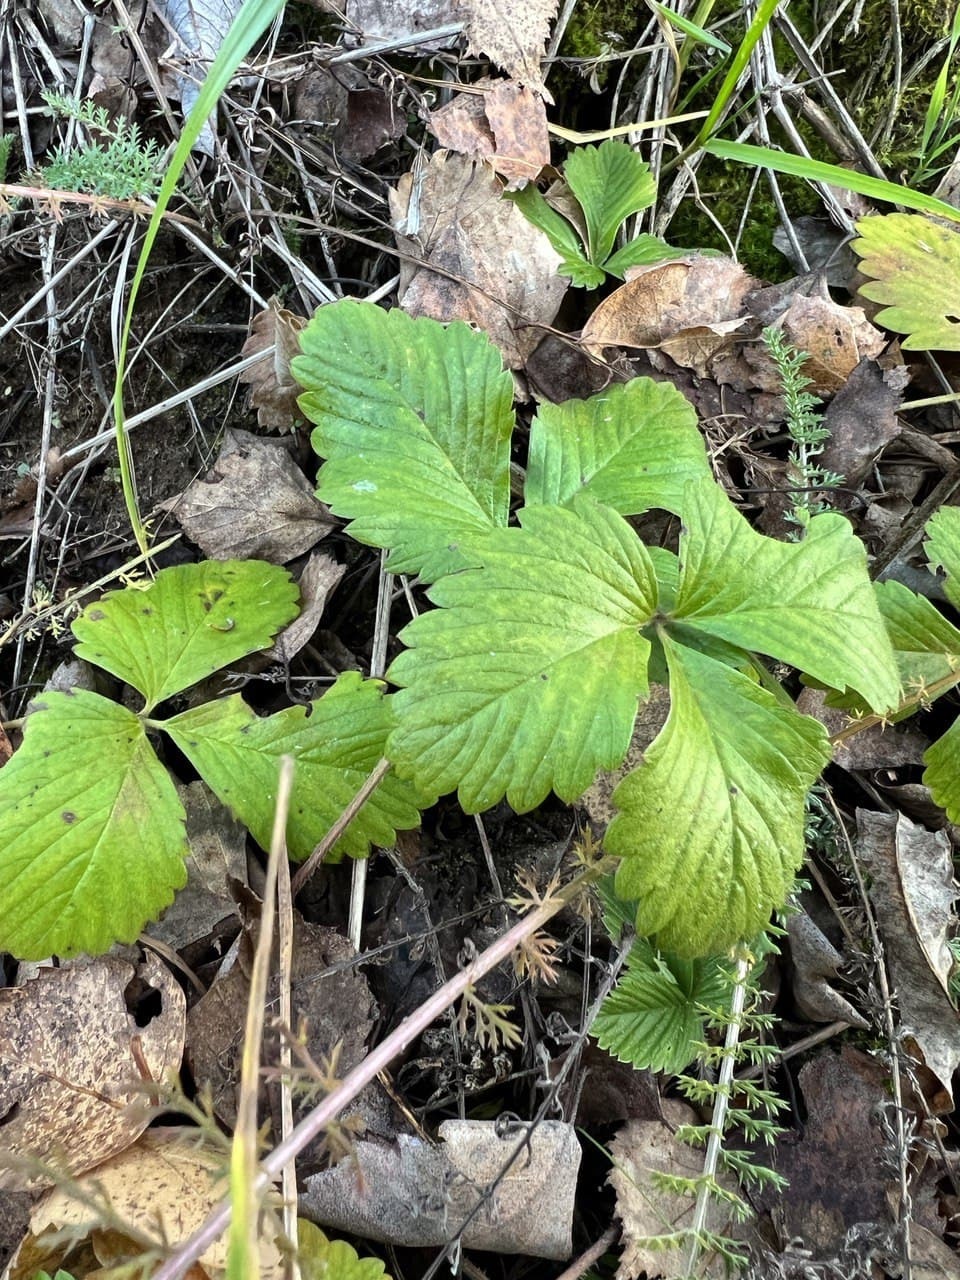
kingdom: Plantae
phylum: Tracheophyta
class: Magnoliopsida
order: Rosales
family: Rosaceae
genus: Fragaria
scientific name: Fragaria moschata
